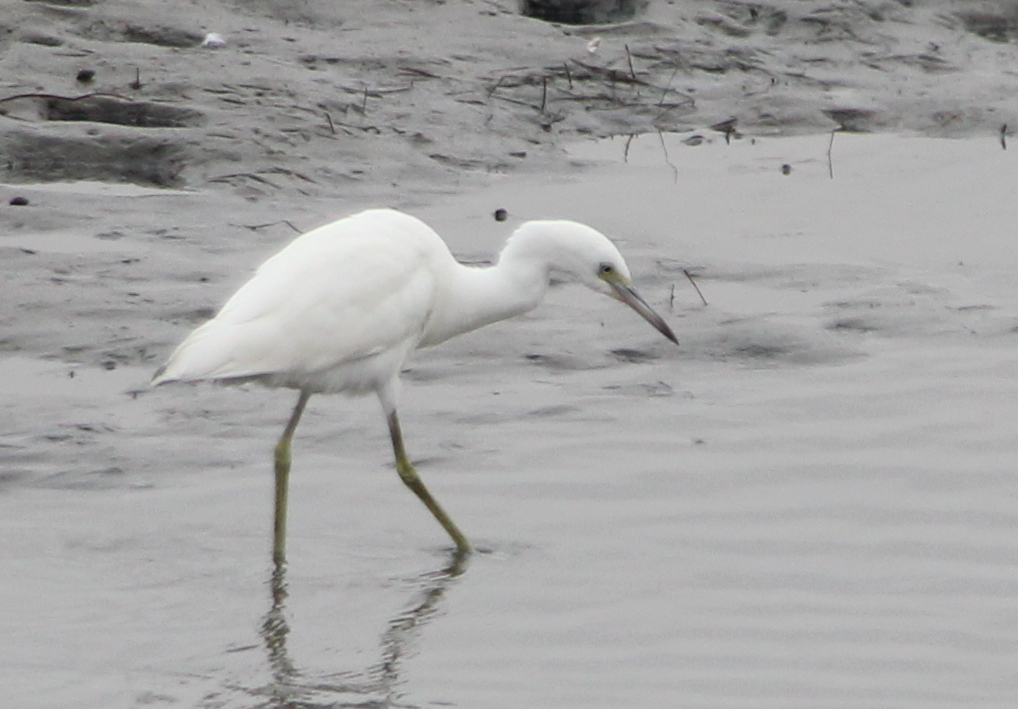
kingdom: Animalia
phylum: Chordata
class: Aves
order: Pelecaniformes
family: Ardeidae
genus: Egretta
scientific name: Egretta caerulea
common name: Little blue heron
